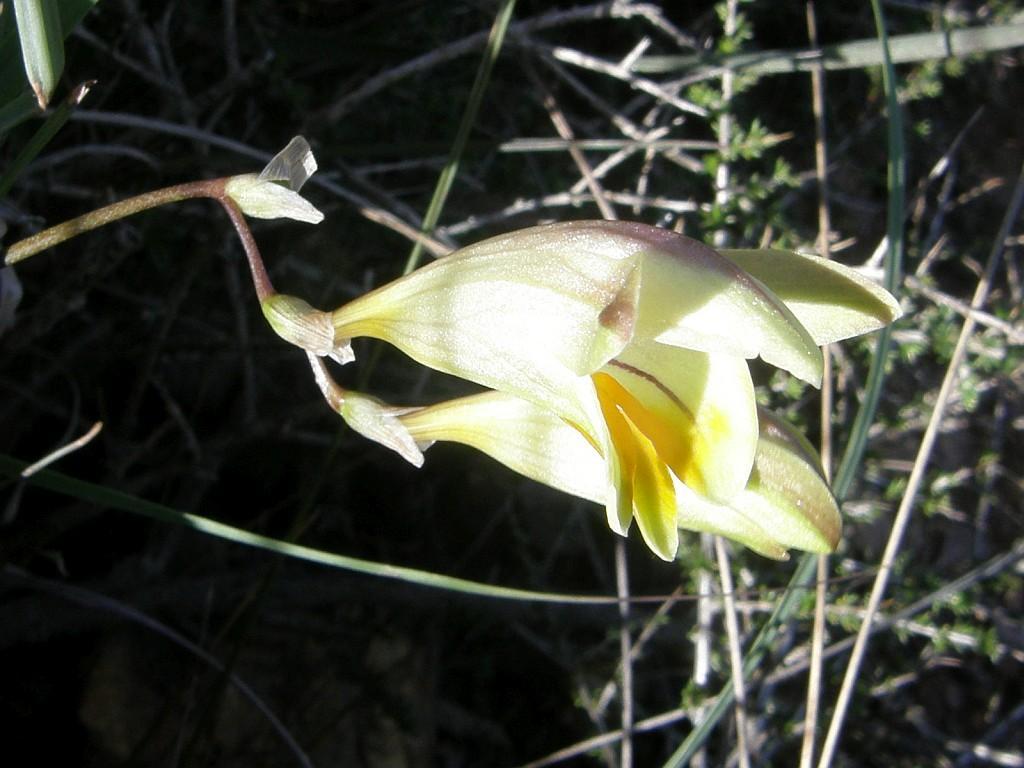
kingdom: Plantae
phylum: Tracheophyta
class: Liliopsida
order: Asparagales
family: Iridaceae
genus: Freesia
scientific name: Freesia refracta
